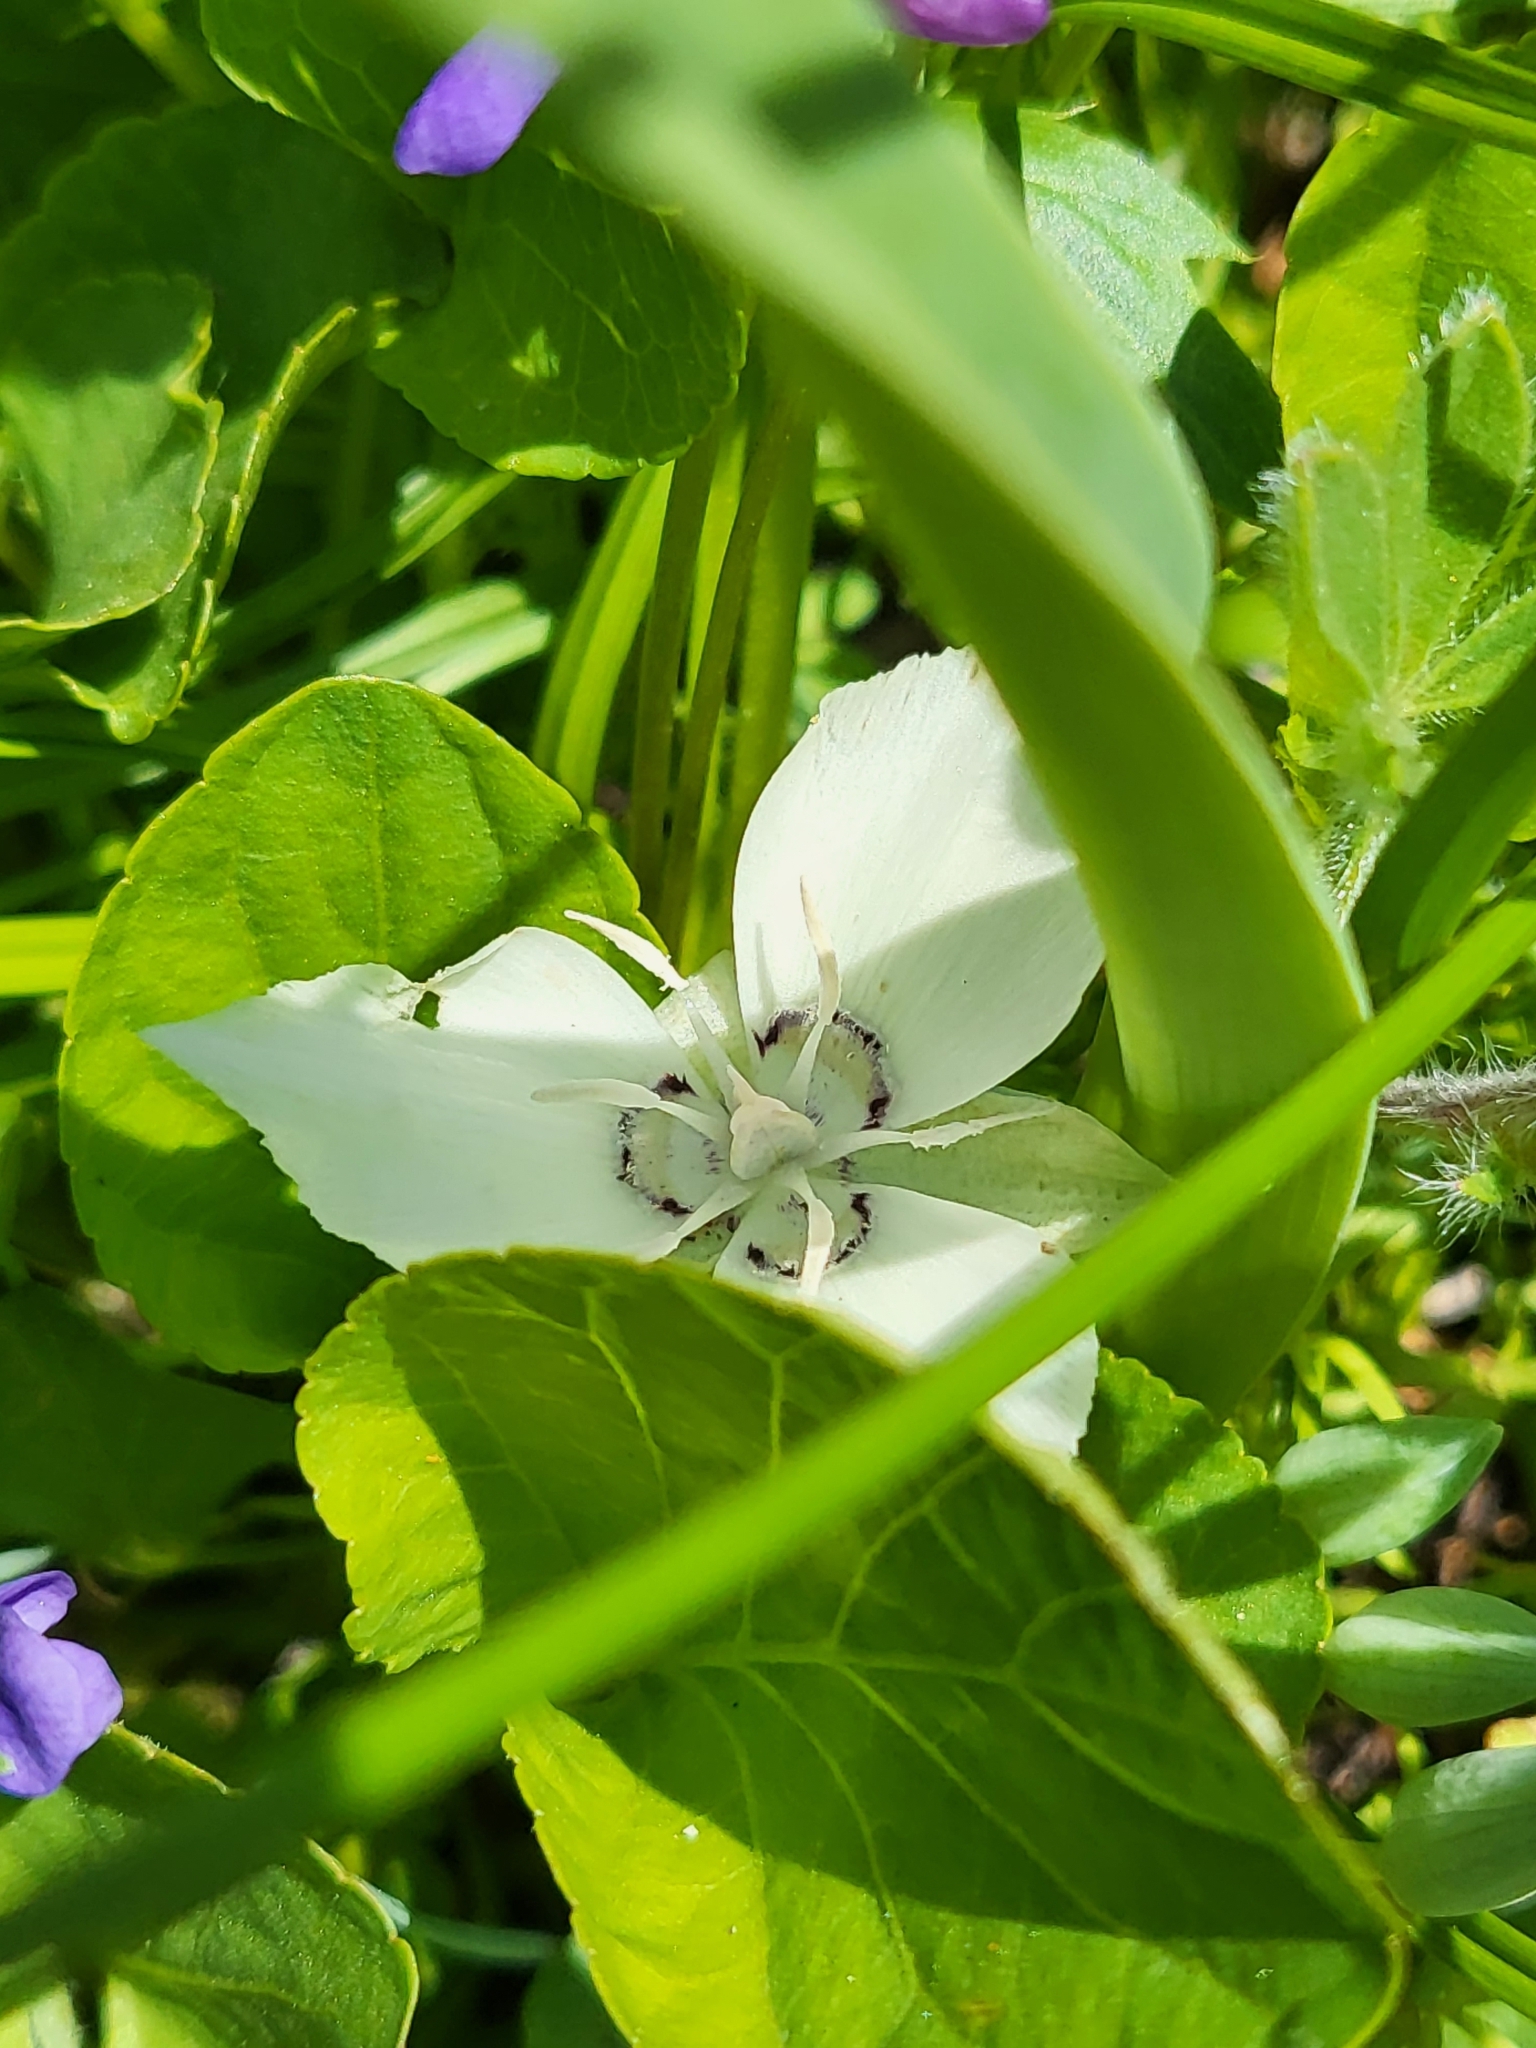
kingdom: Plantae
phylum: Tracheophyta
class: Liliopsida
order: Liliales
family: Liliaceae
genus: Calochortus
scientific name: Calochortus minimus
